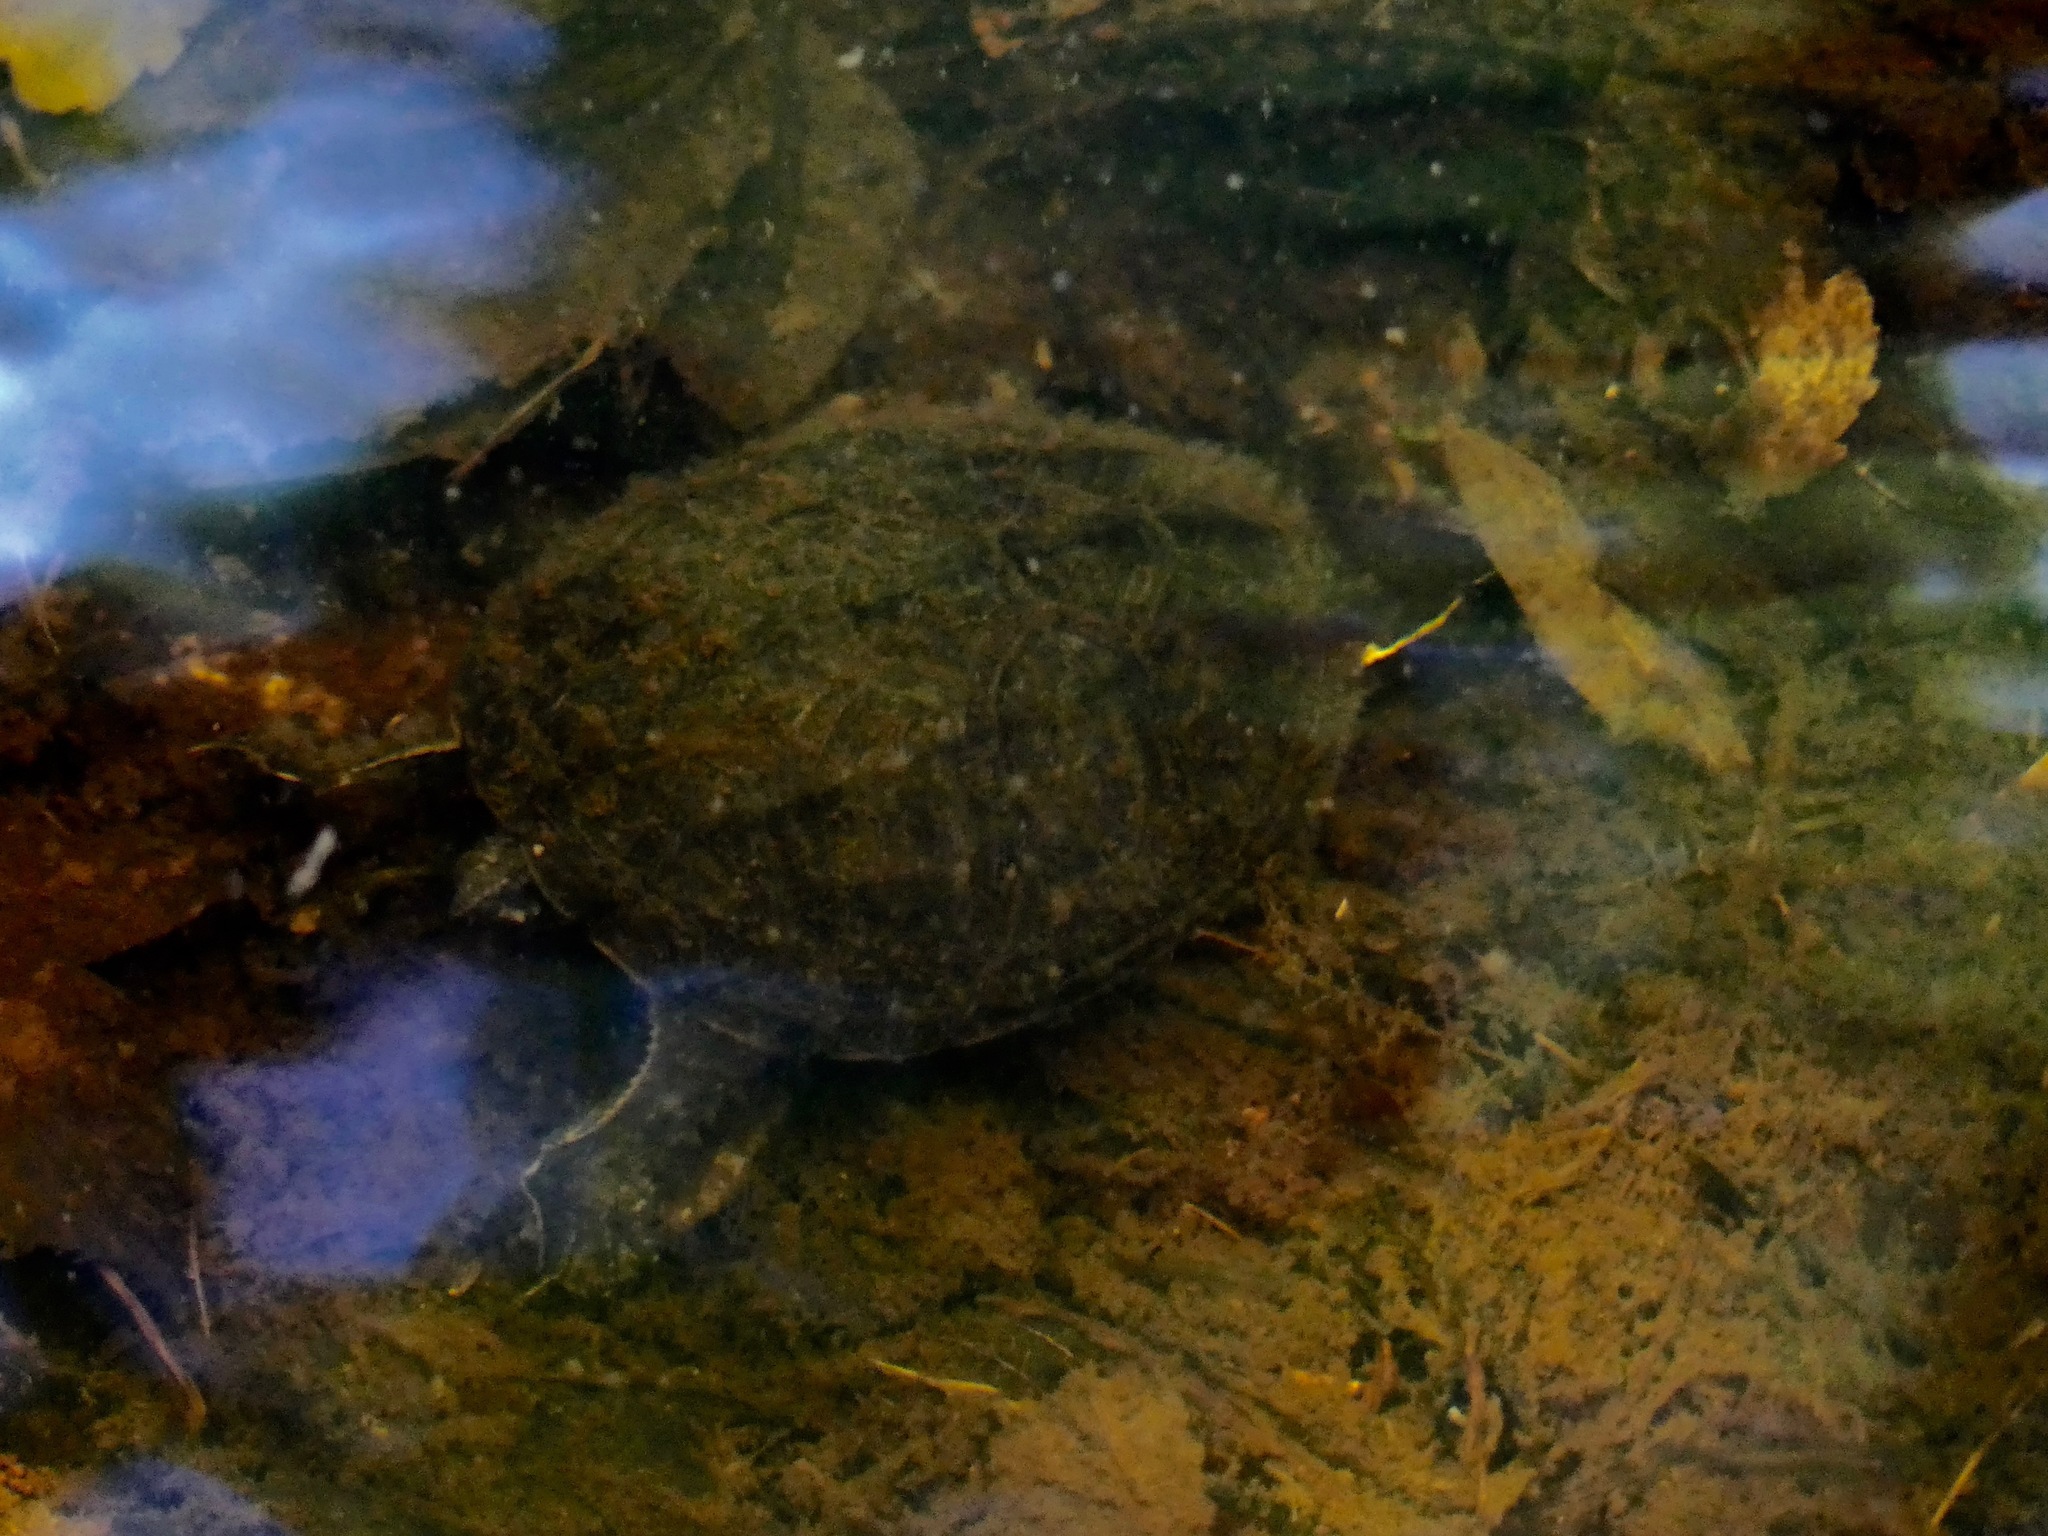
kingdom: Animalia
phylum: Chordata
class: Testudines
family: Kinosternidae
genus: Sternotherus
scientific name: Sternotherus odoratus
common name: Common musk turtle
